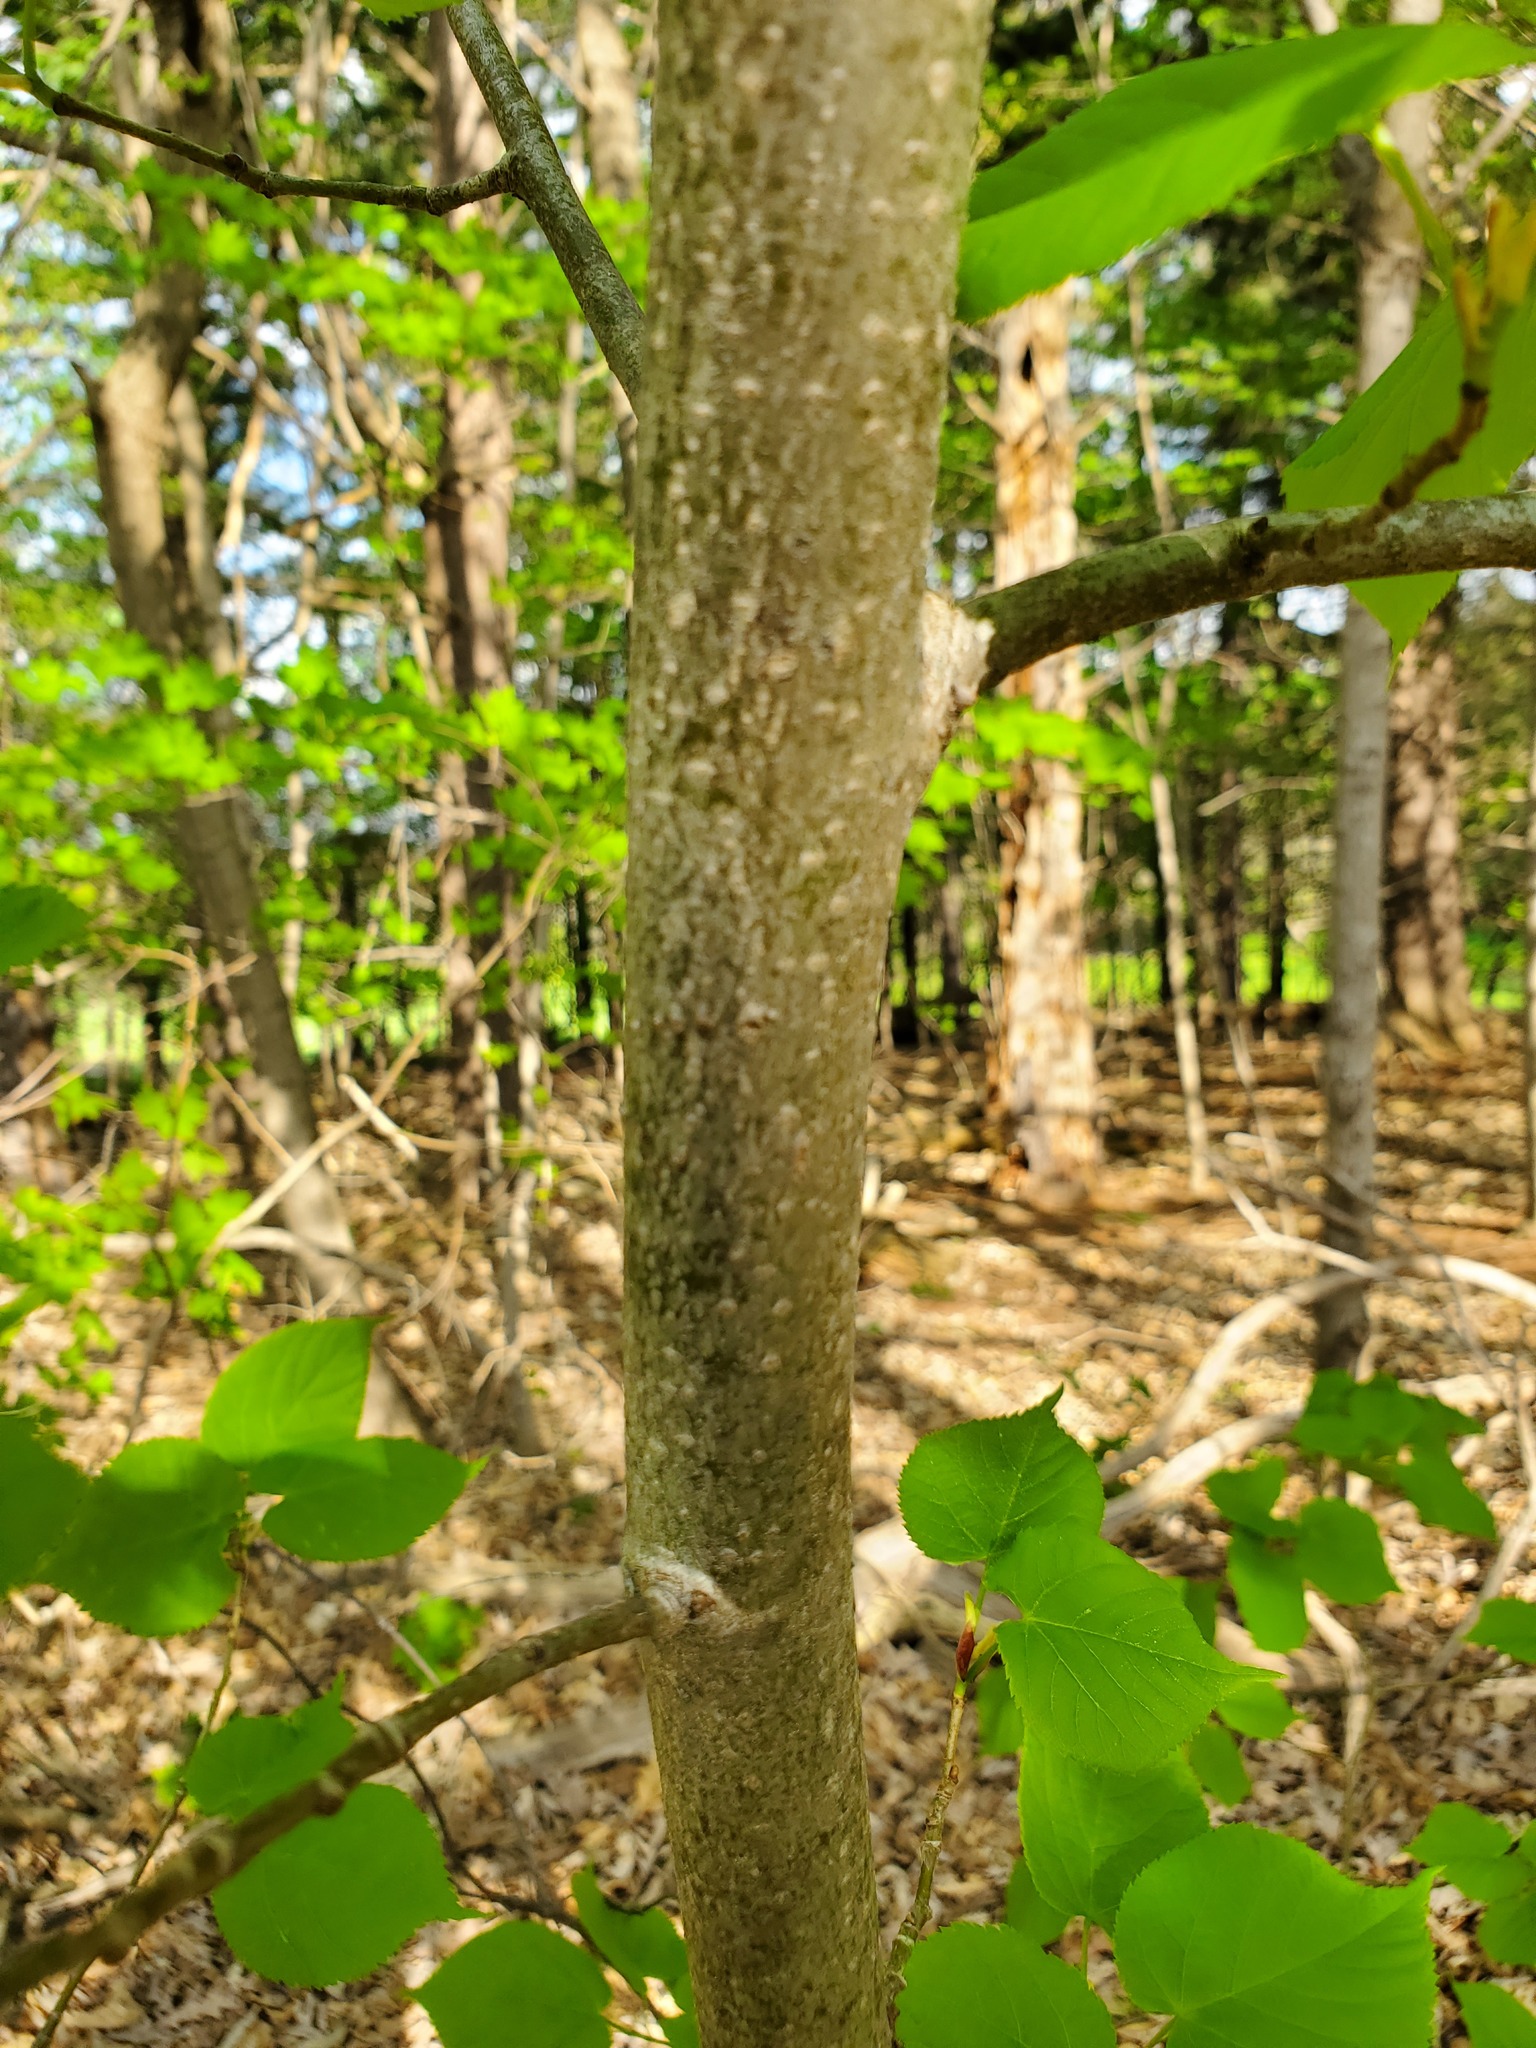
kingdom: Plantae
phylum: Tracheophyta
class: Magnoliopsida
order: Malvales
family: Malvaceae
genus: Tilia
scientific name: Tilia americana
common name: Basswood
